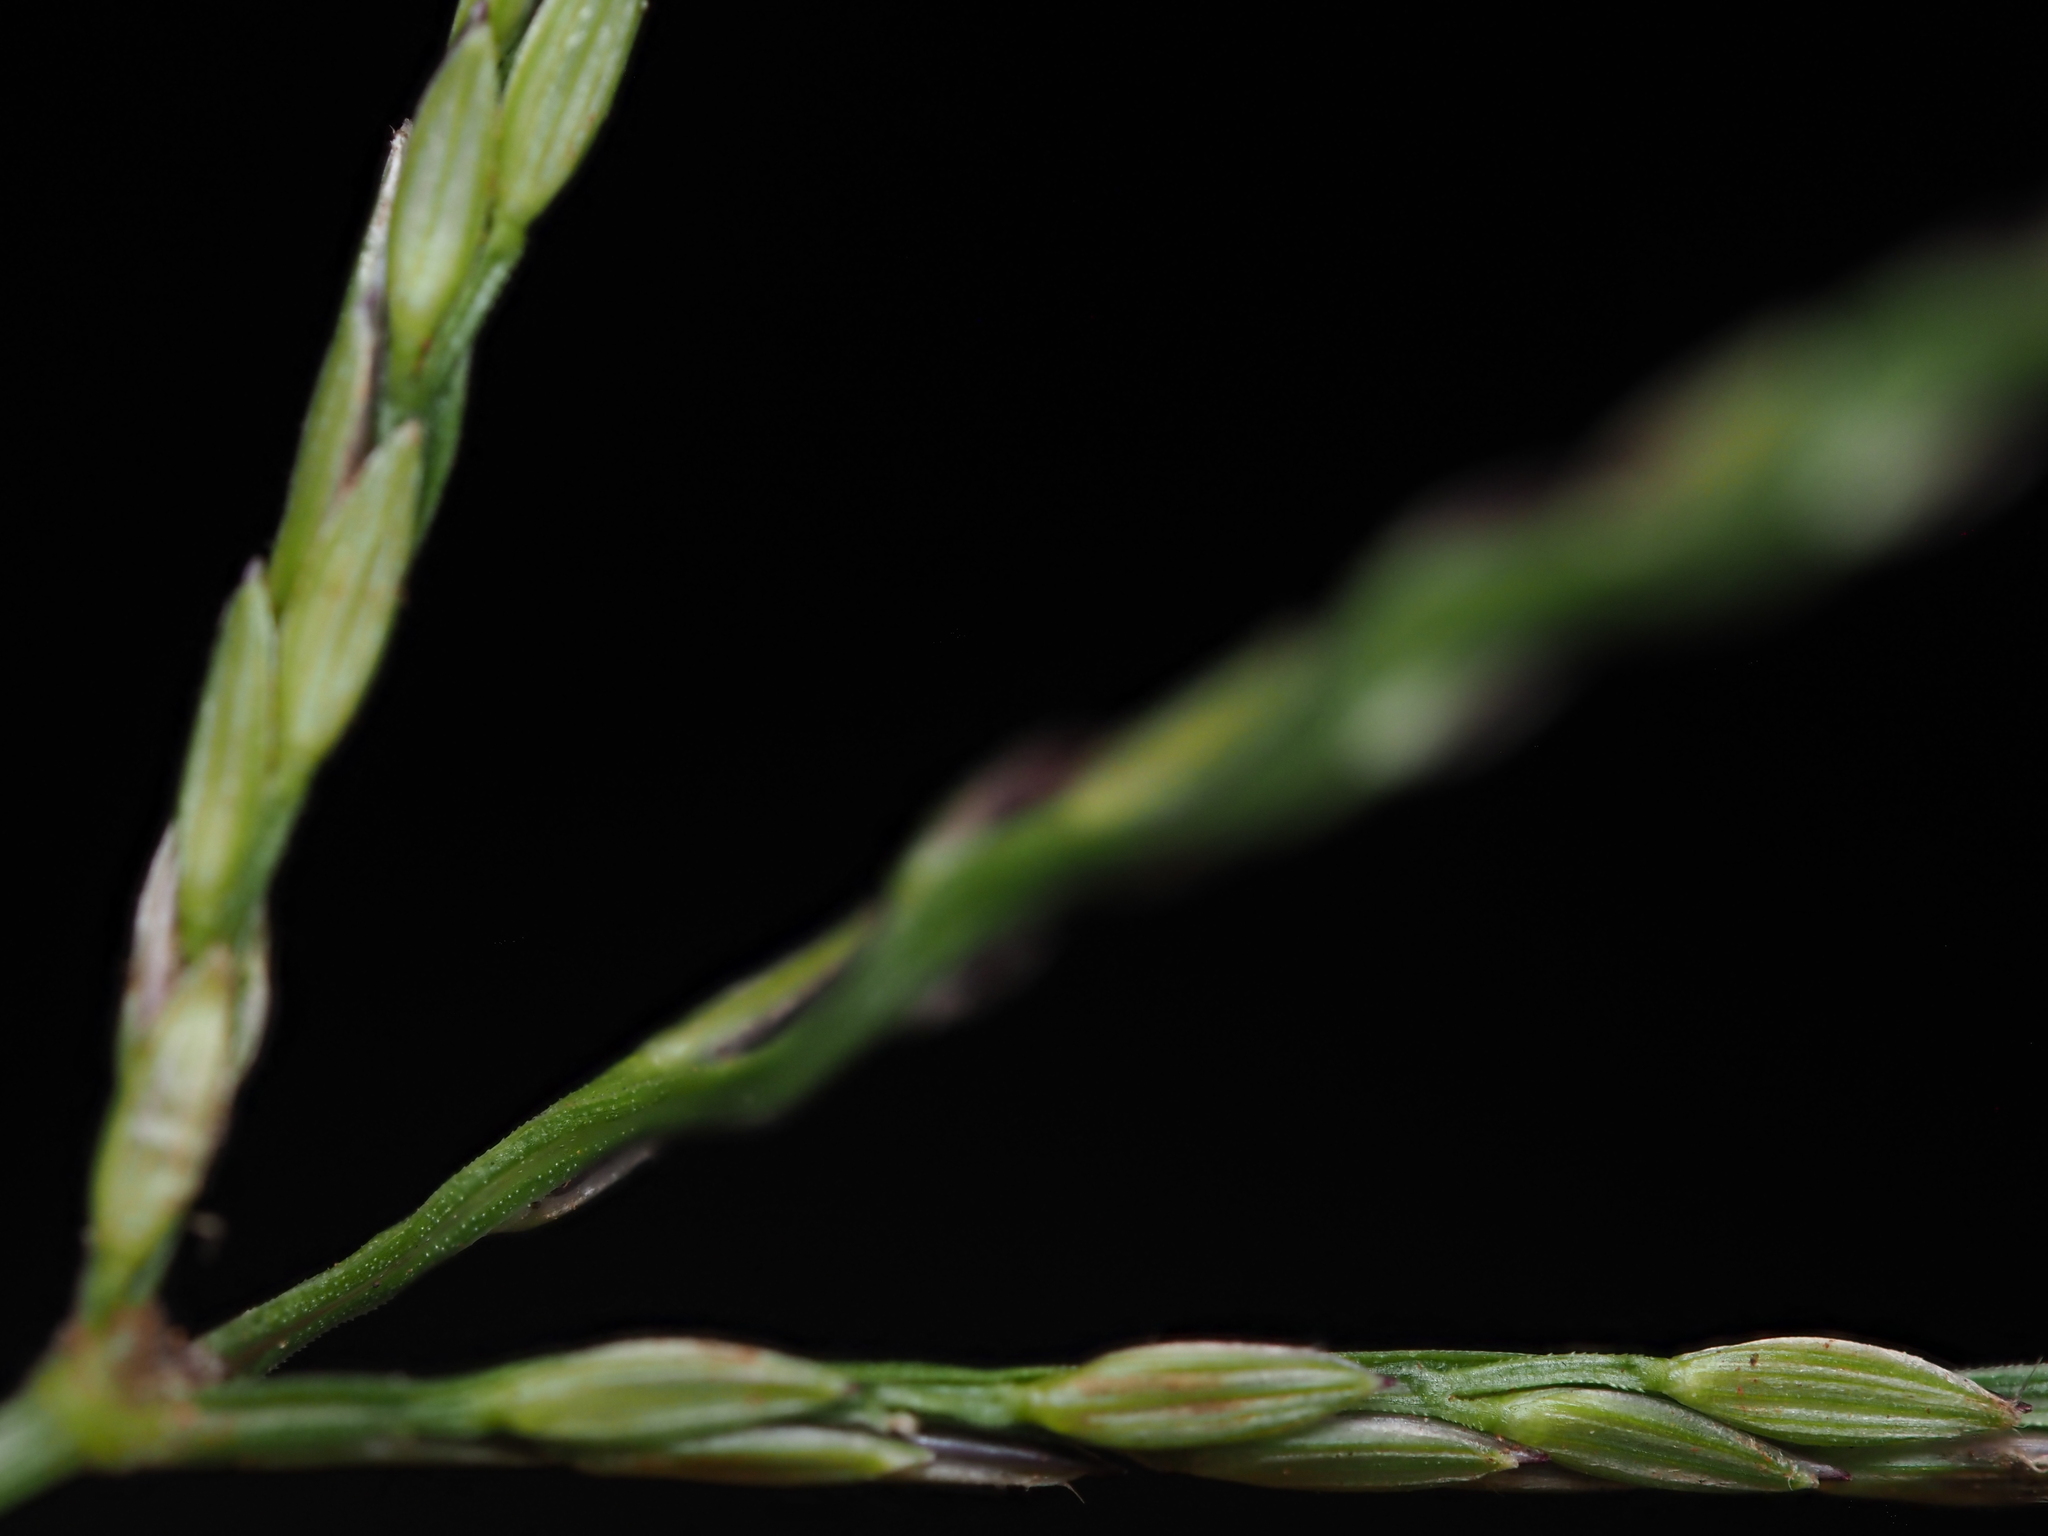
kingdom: Plantae
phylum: Tracheophyta
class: Liliopsida
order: Poales
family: Poaceae
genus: Digitaria
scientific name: Digitaria nuda
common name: Naked crabgrass
